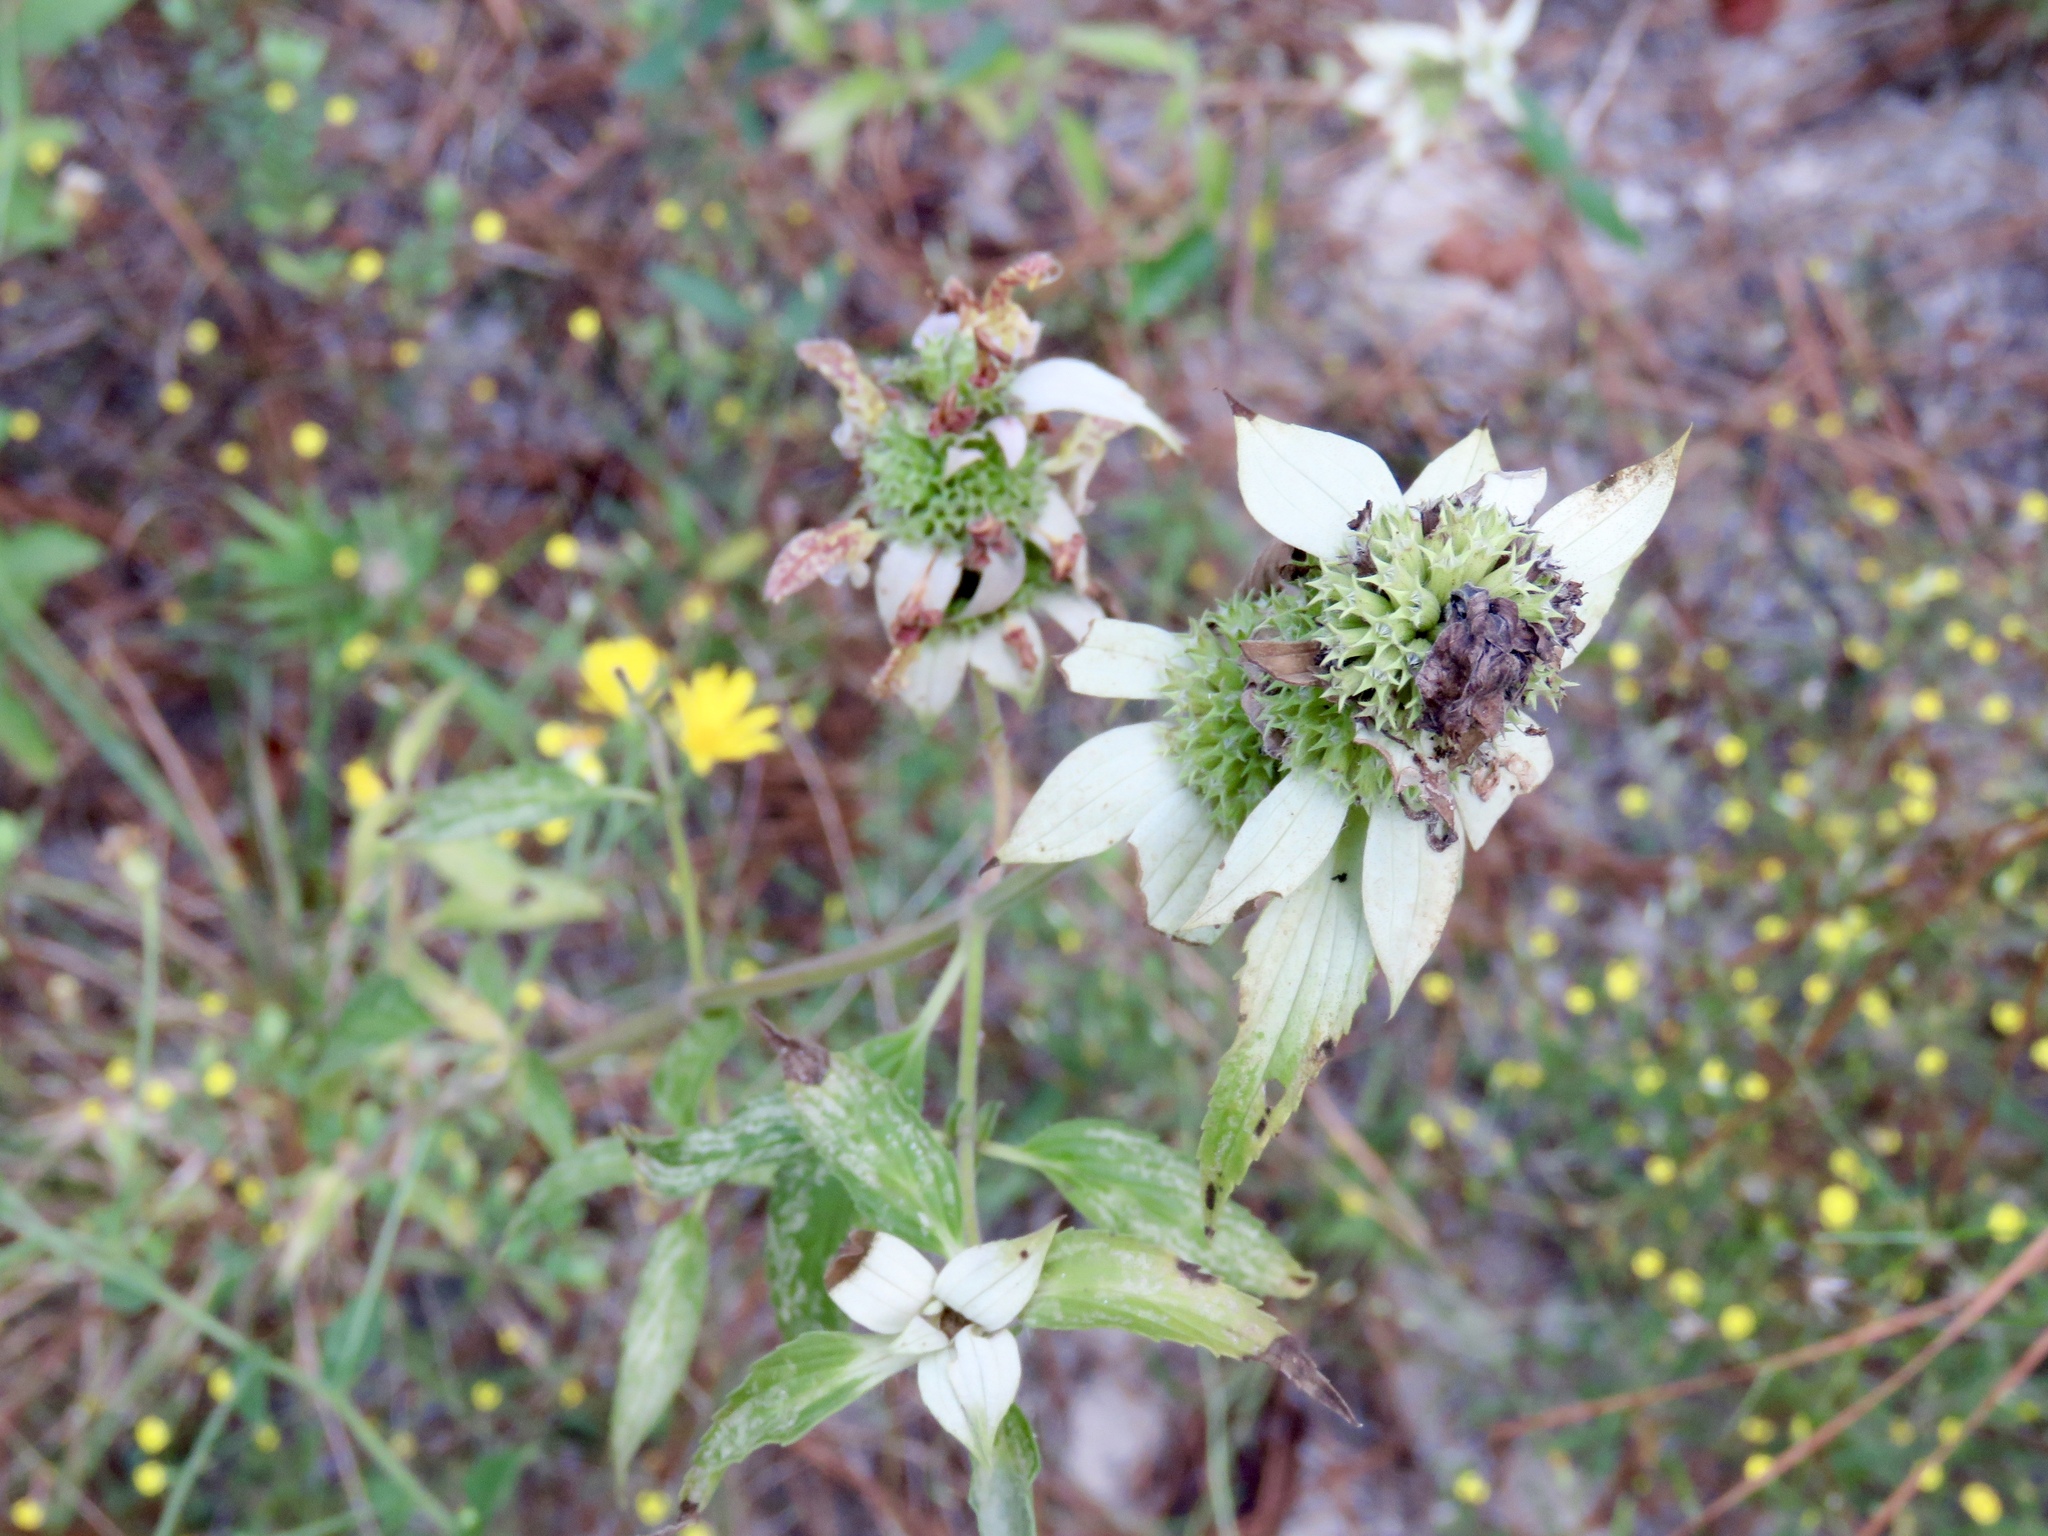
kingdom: Plantae
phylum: Tracheophyta
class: Magnoliopsida
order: Lamiales
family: Lamiaceae
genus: Monarda
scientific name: Monarda punctata
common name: Dotted monarda
